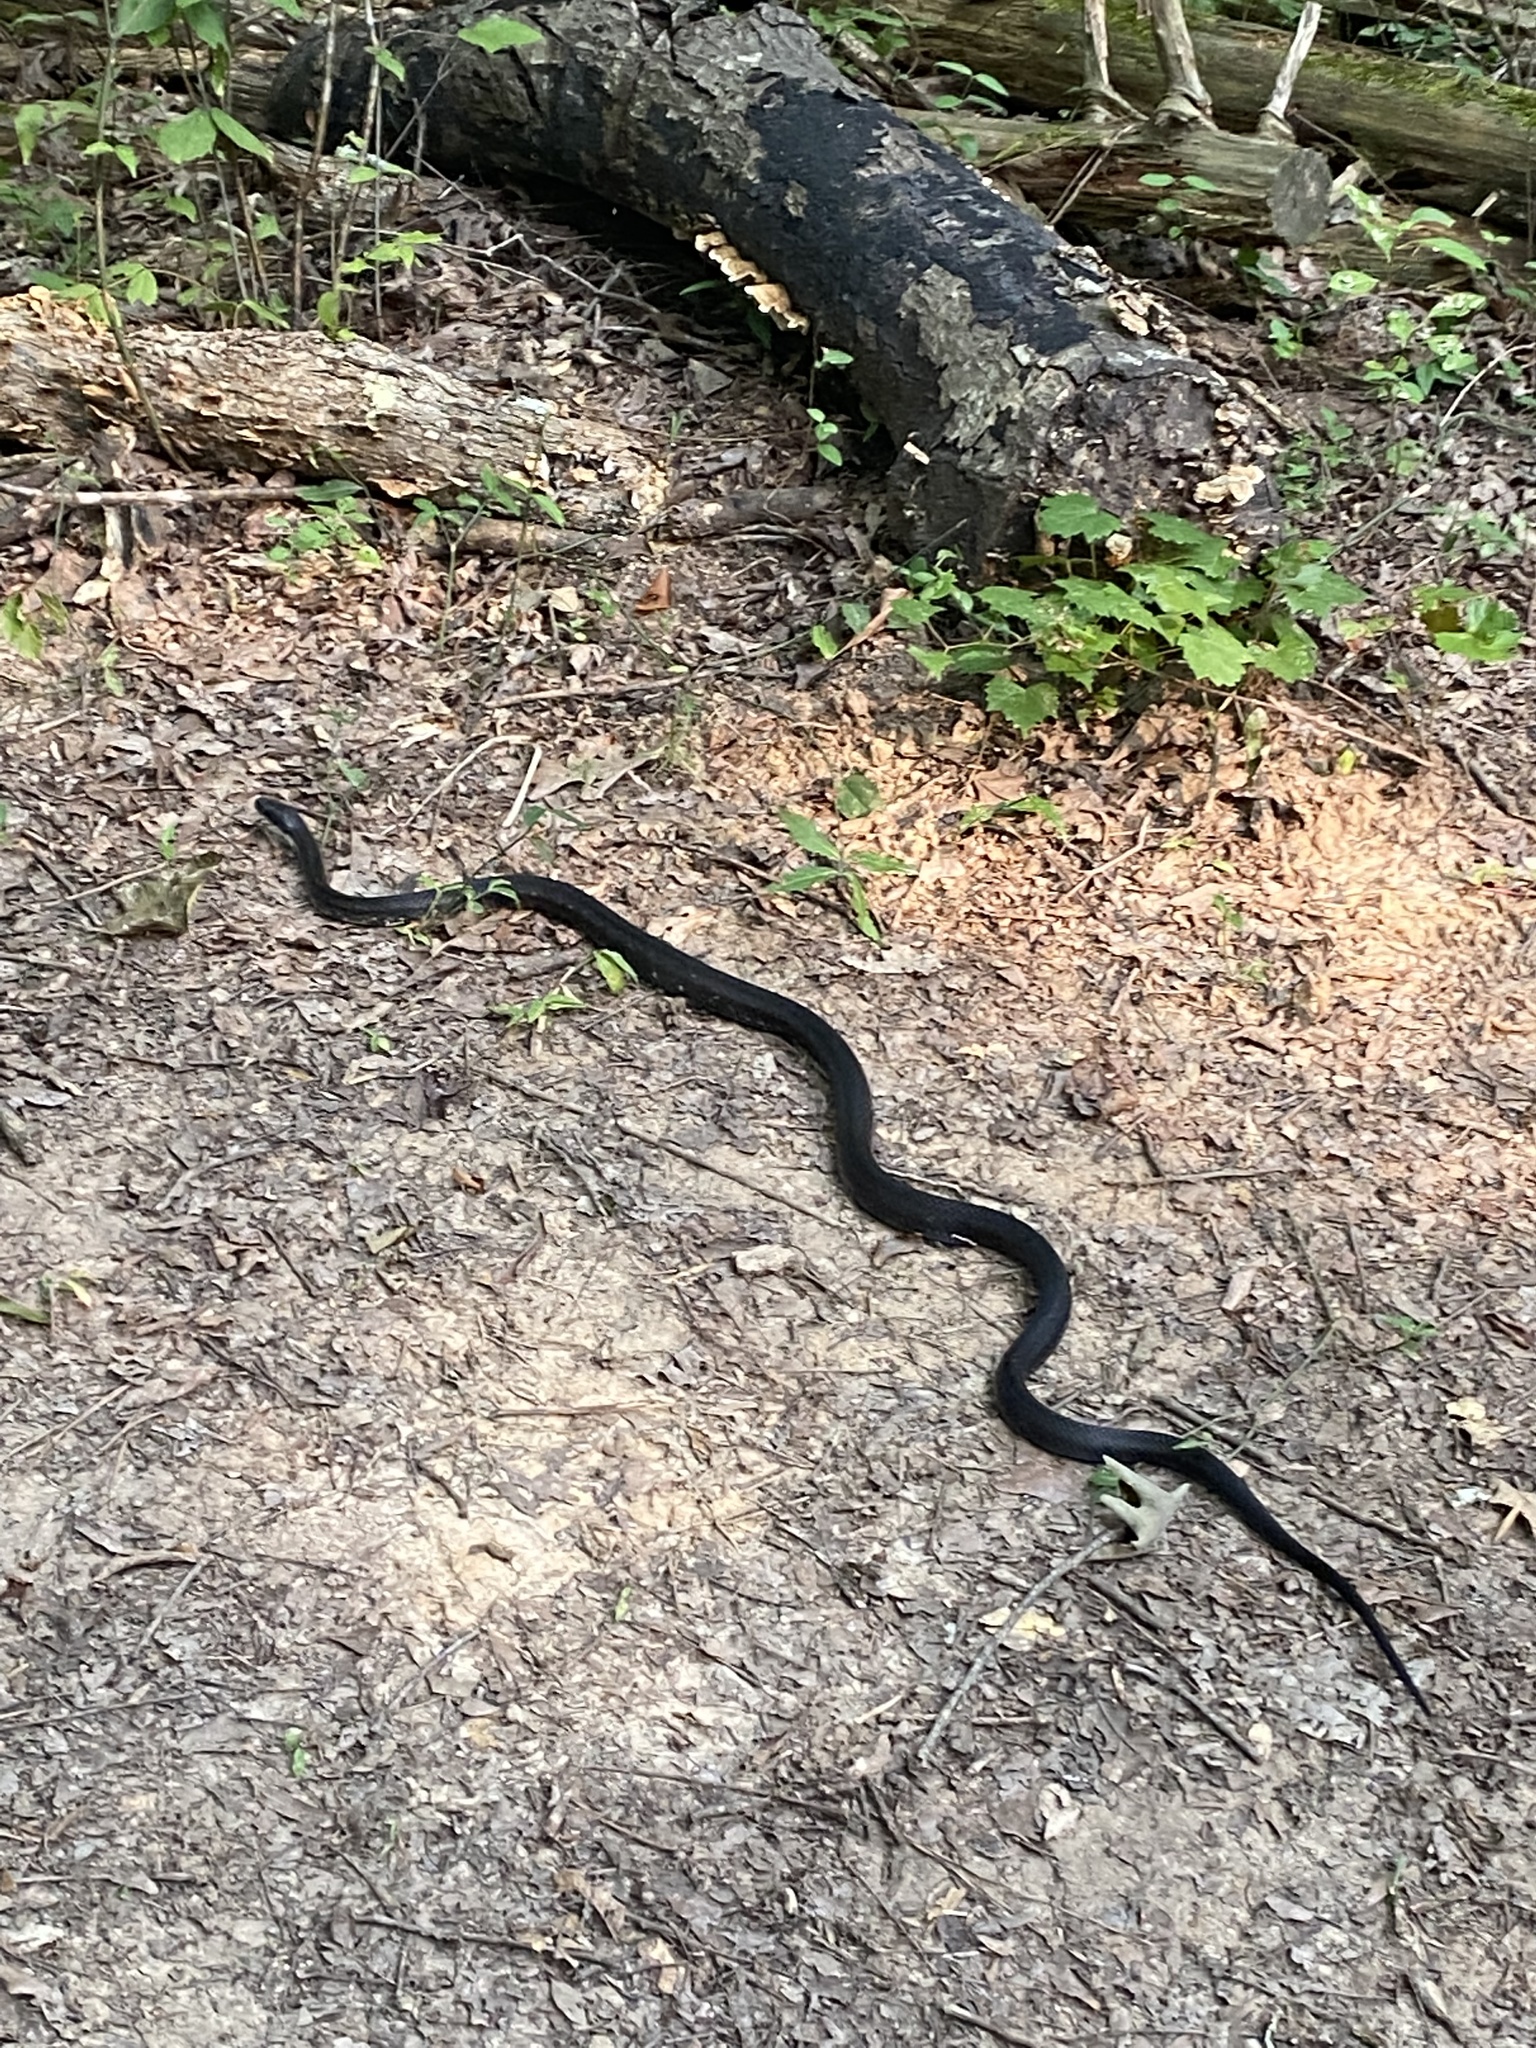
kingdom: Animalia
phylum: Chordata
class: Squamata
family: Colubridae
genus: Pantherophis
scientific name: Pantherophis alleghaniensis
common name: Eastern rat snake
